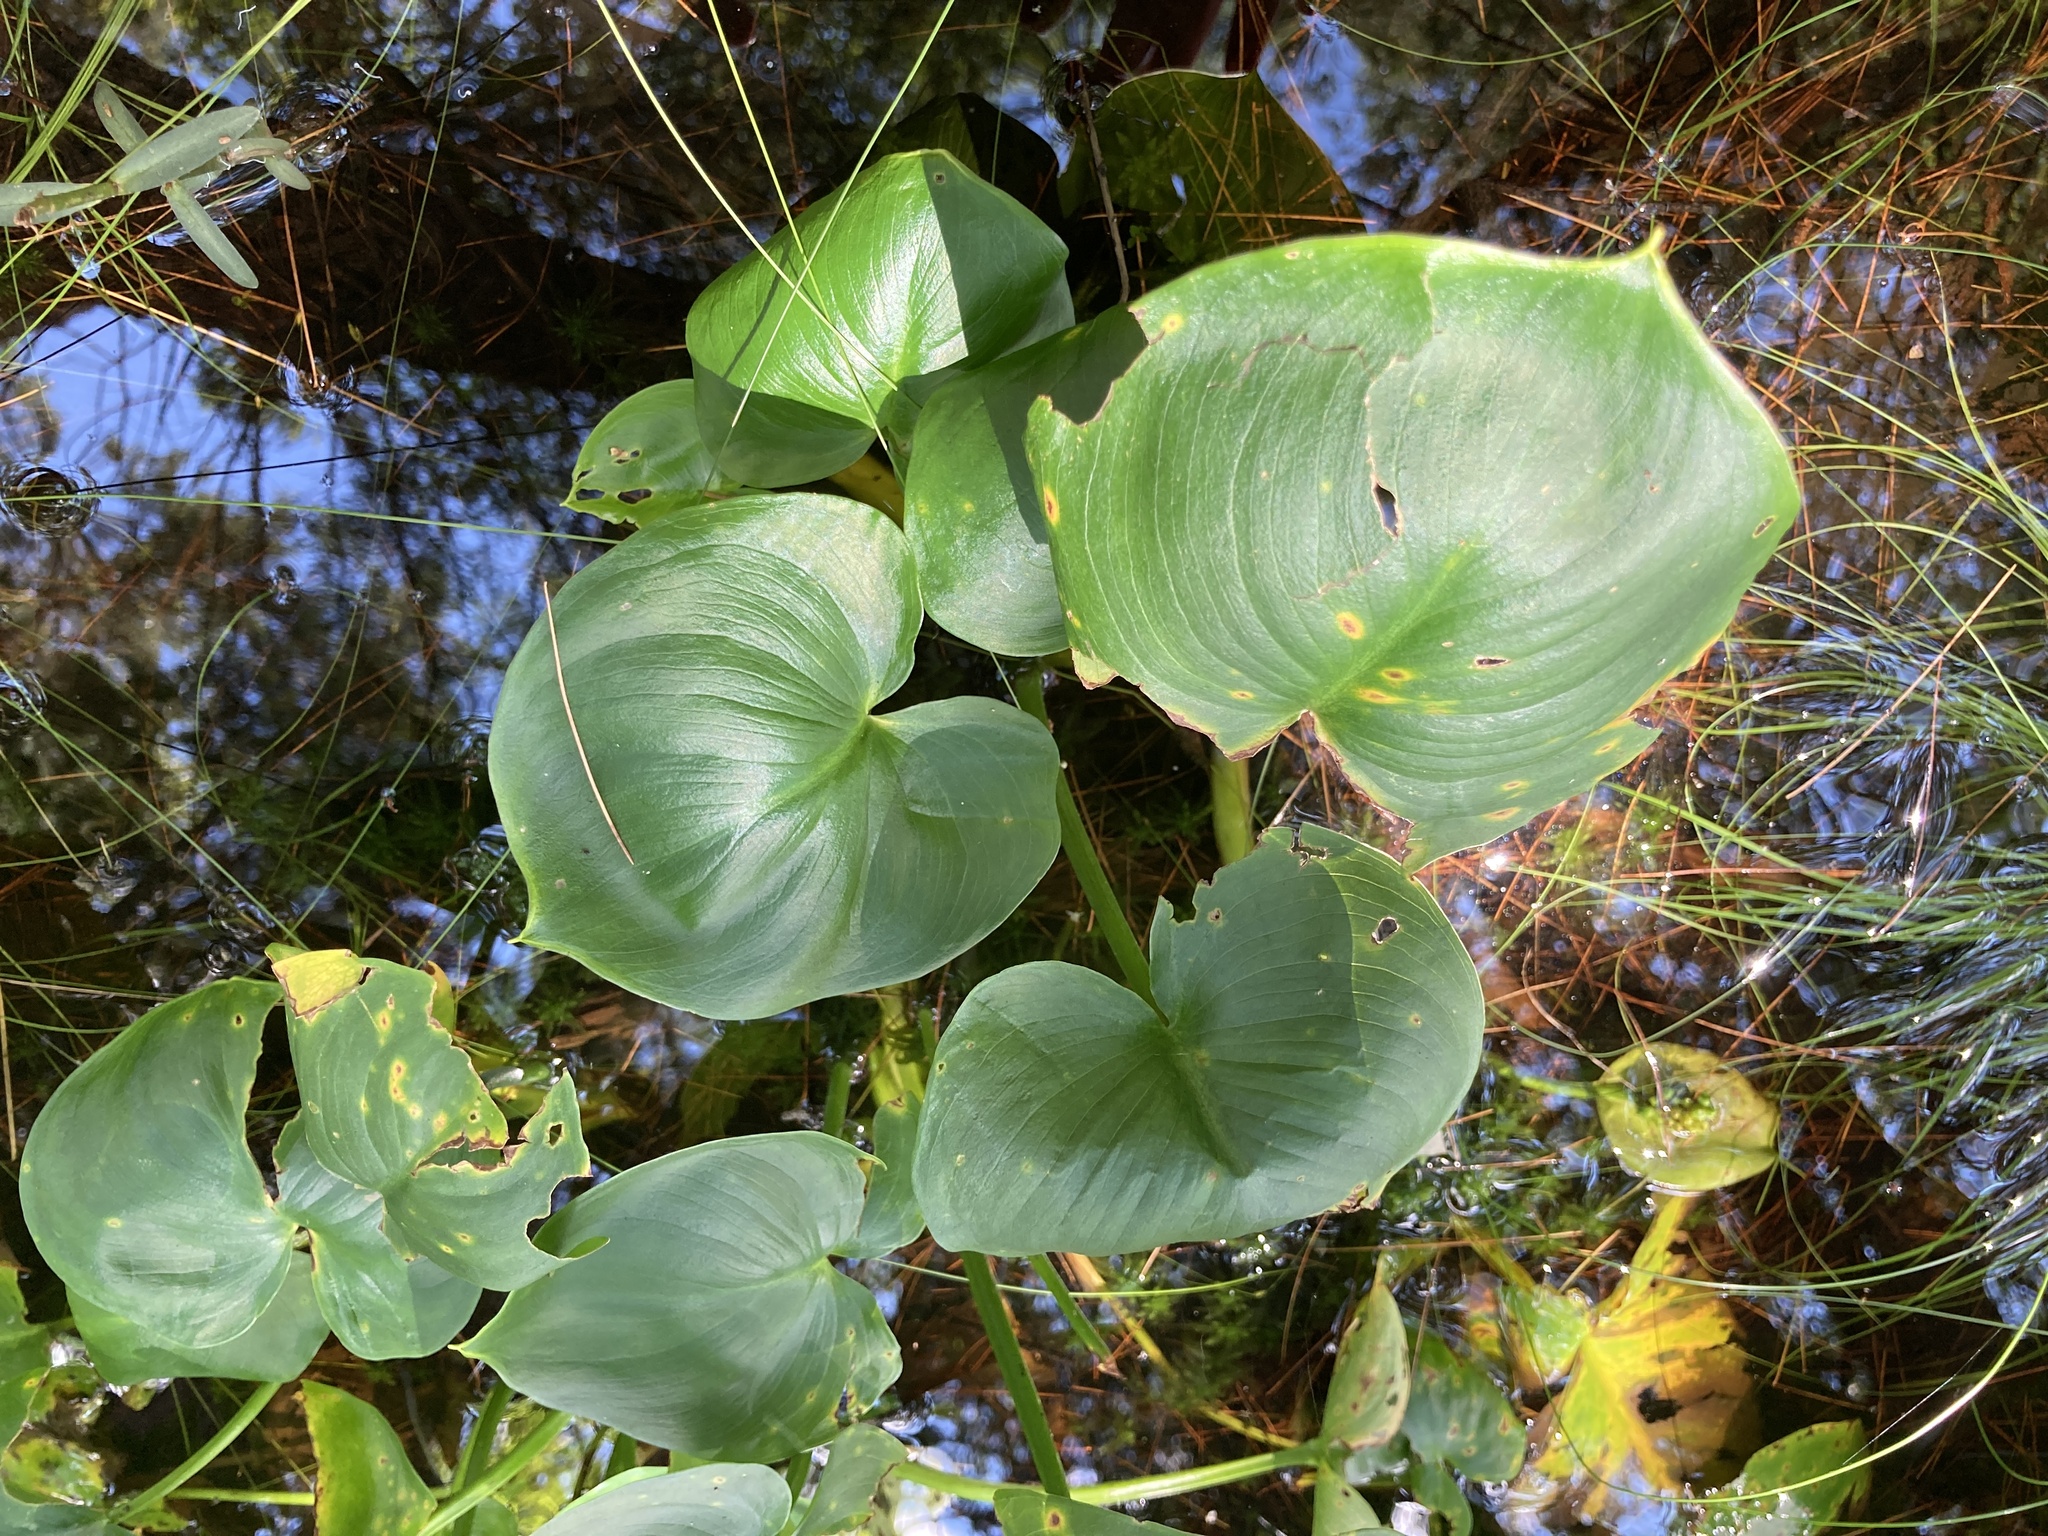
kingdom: Plantae
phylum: Tracheophyta
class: Liliopsida
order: Alismatales
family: Araceae
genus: Calla
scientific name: Calla palustris
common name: Bog arum
